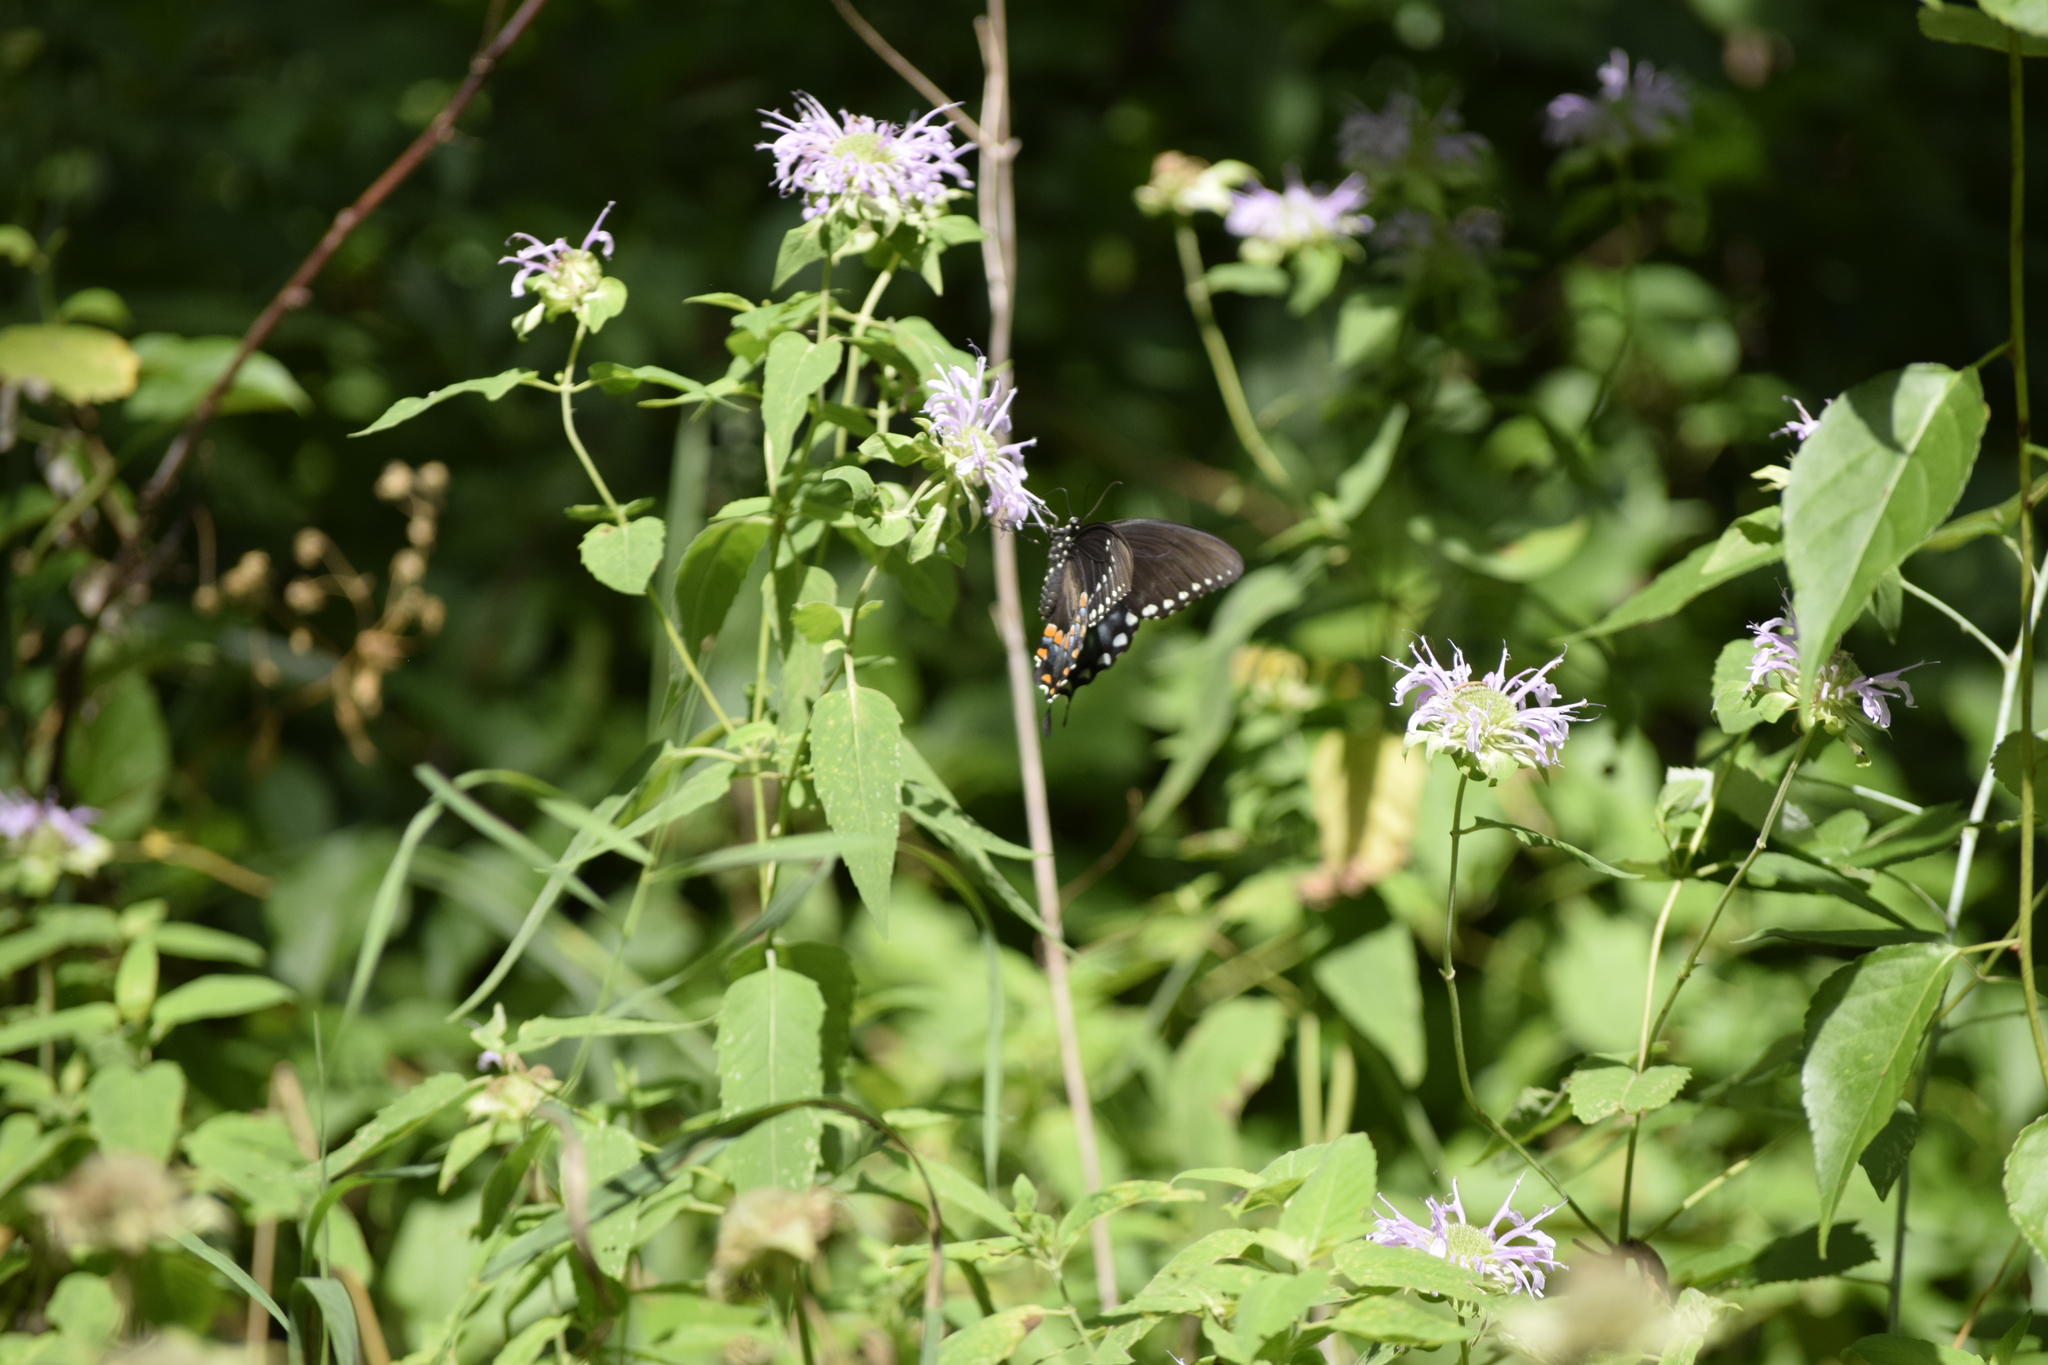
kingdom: Animalia
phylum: Arthropoda
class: Insecta
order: Lepidoptera
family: Papilionidae
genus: Papilio
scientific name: Papilio troilus
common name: Spicebush swallowtail
